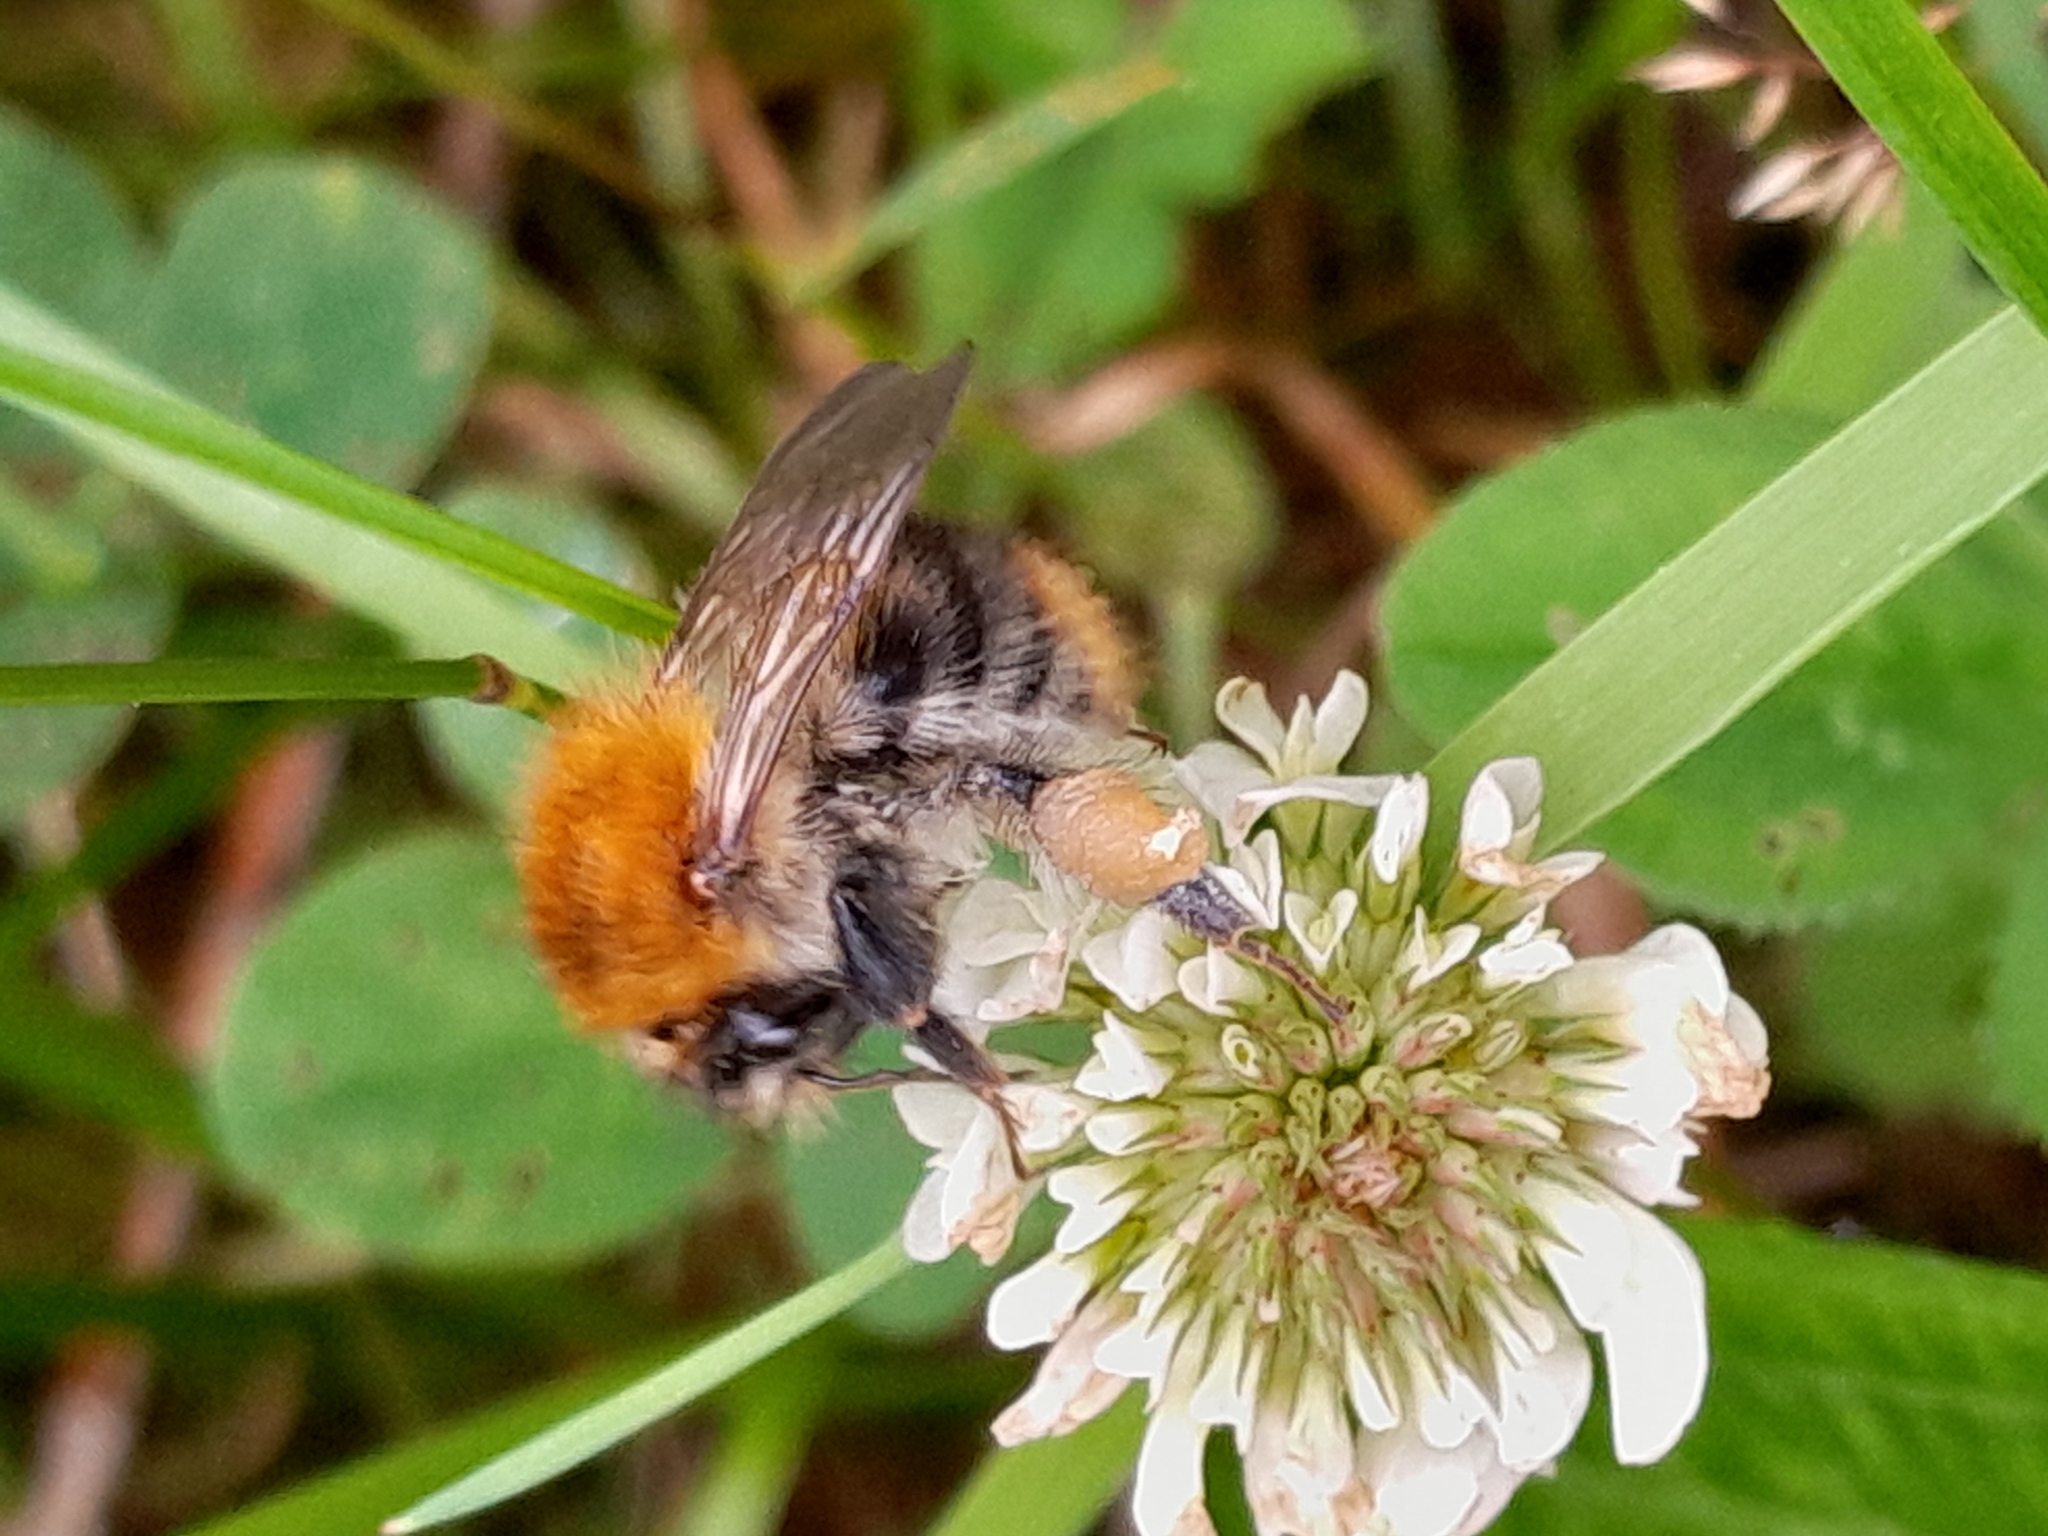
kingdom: Animalia
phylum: Arthropoda
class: Insecta
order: Hymenoptera
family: Apidae
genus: Bombus
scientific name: Bombus pascuorum
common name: Common carder bee
